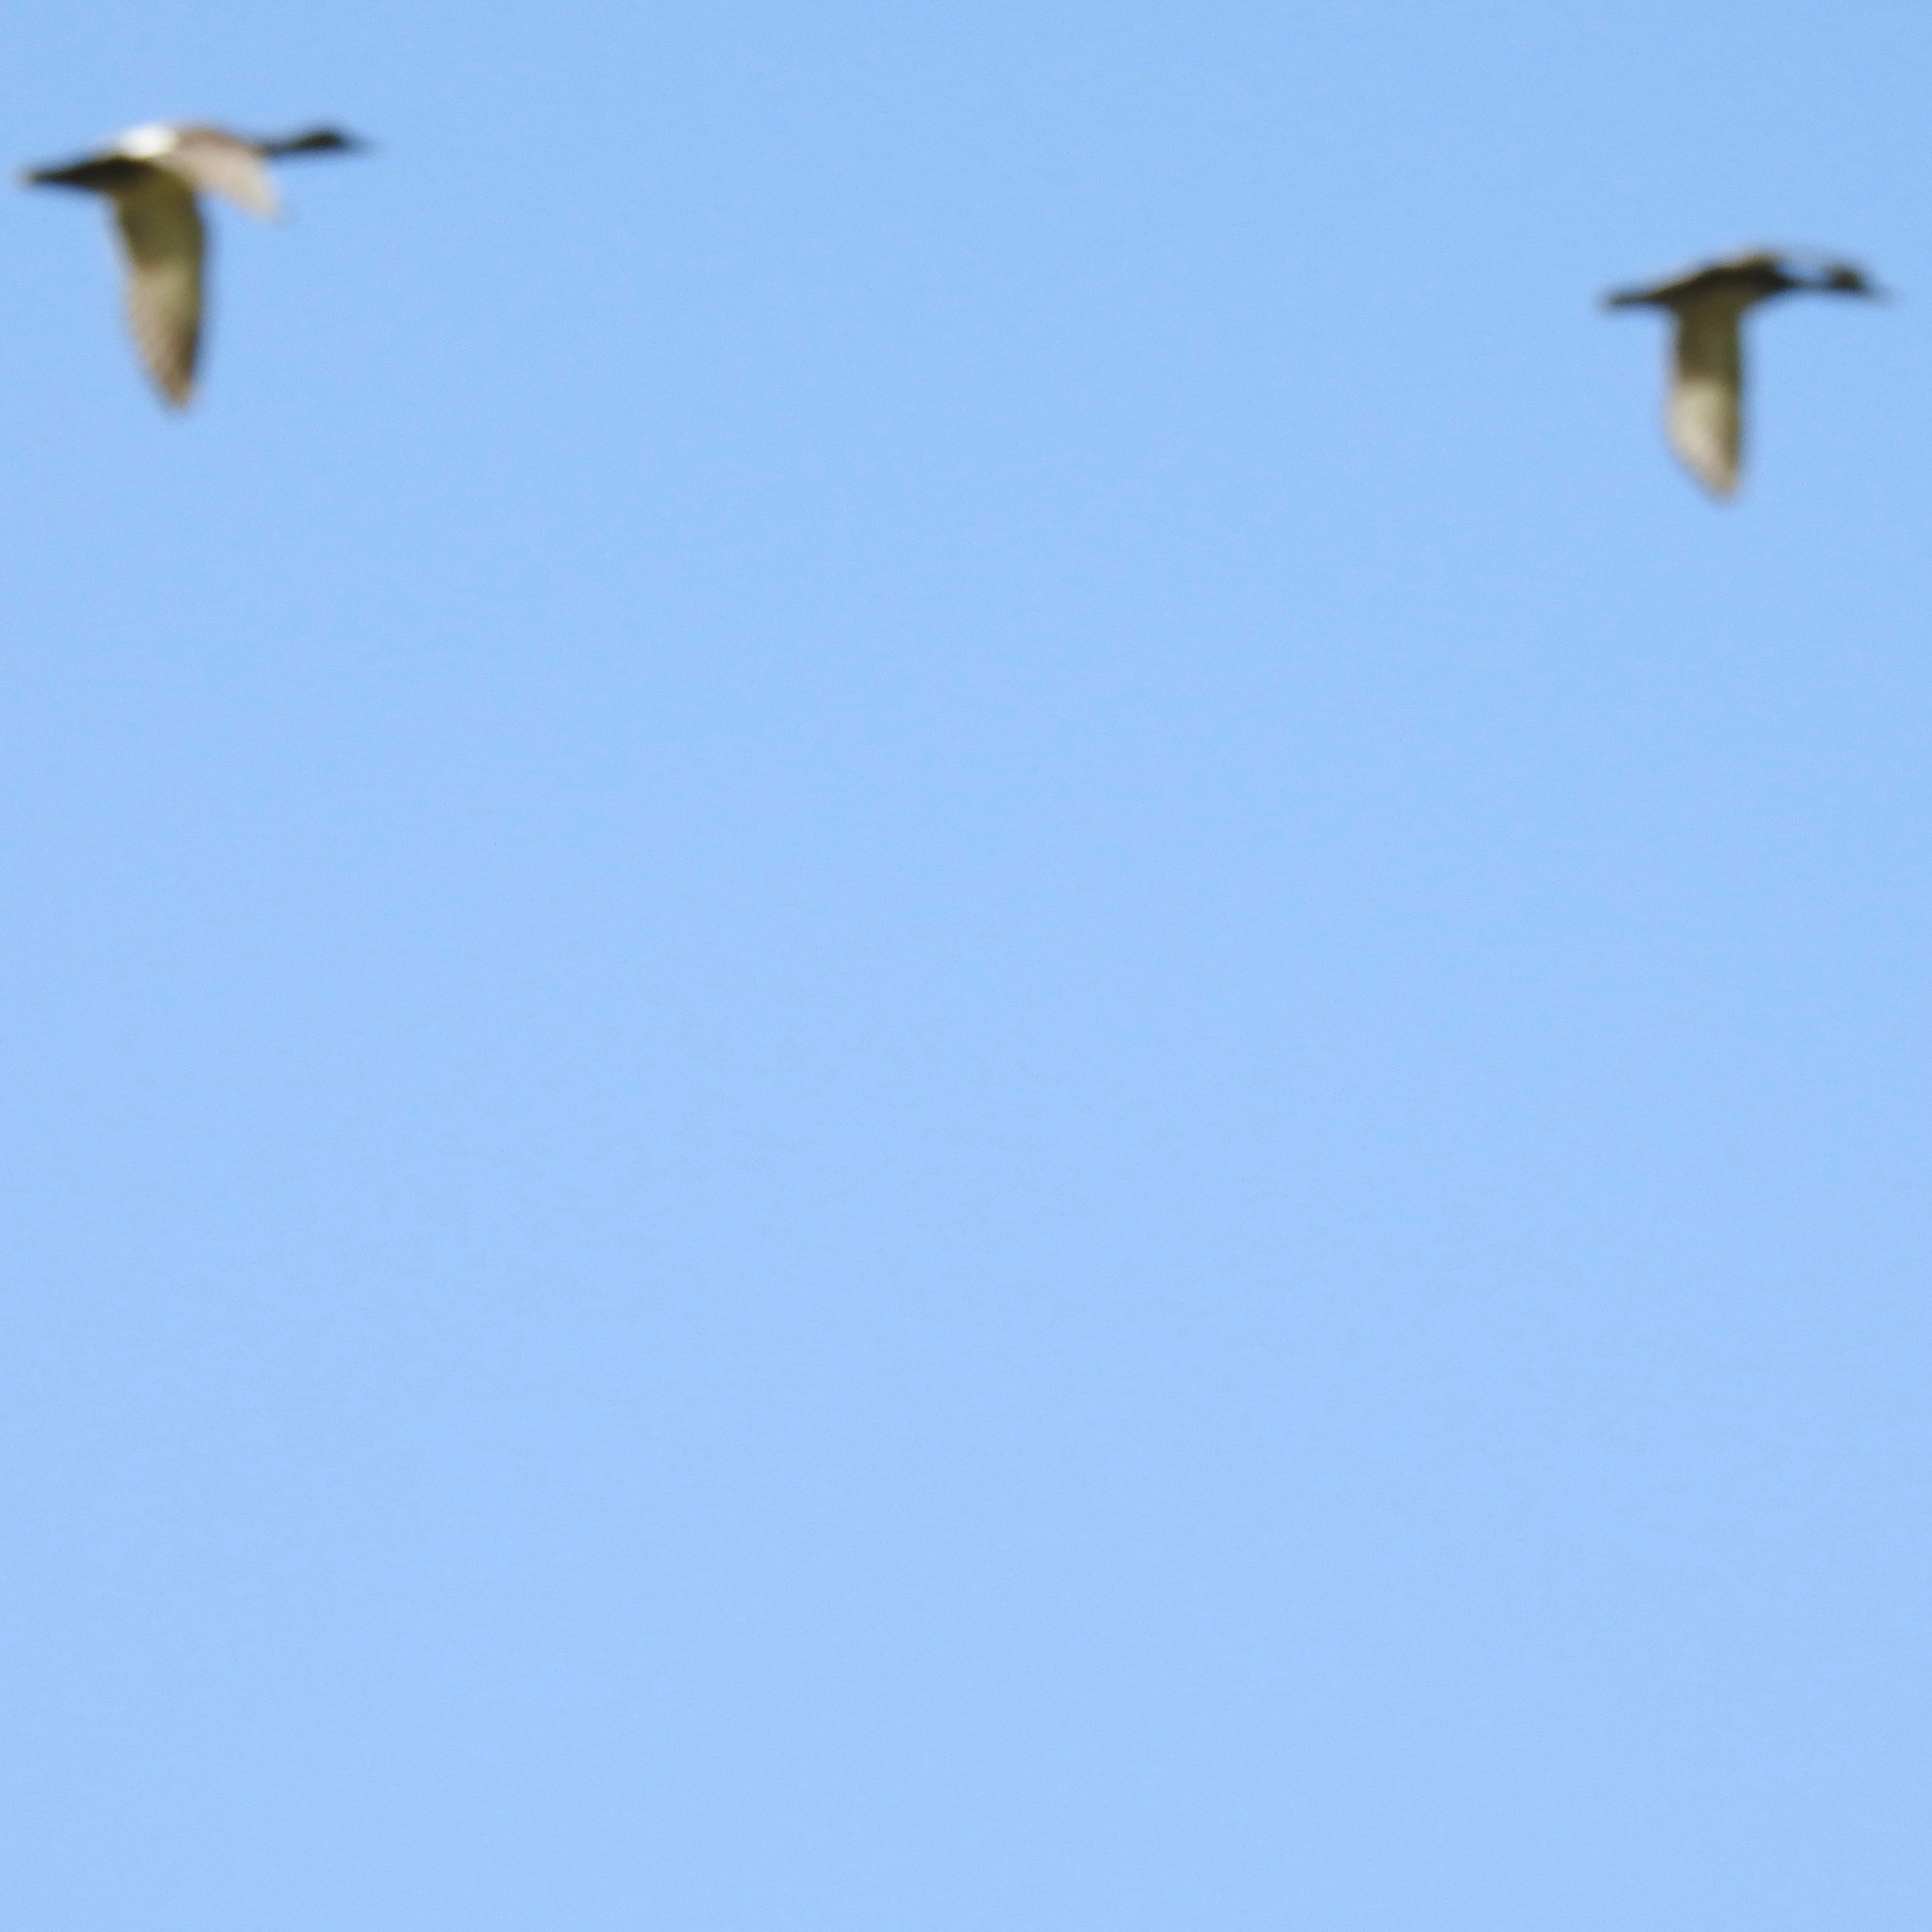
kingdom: Animalia
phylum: Chordata
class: Aves
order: Anseriformes
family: Anatidae
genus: Branta
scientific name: Branta canadensis
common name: Canada goose
